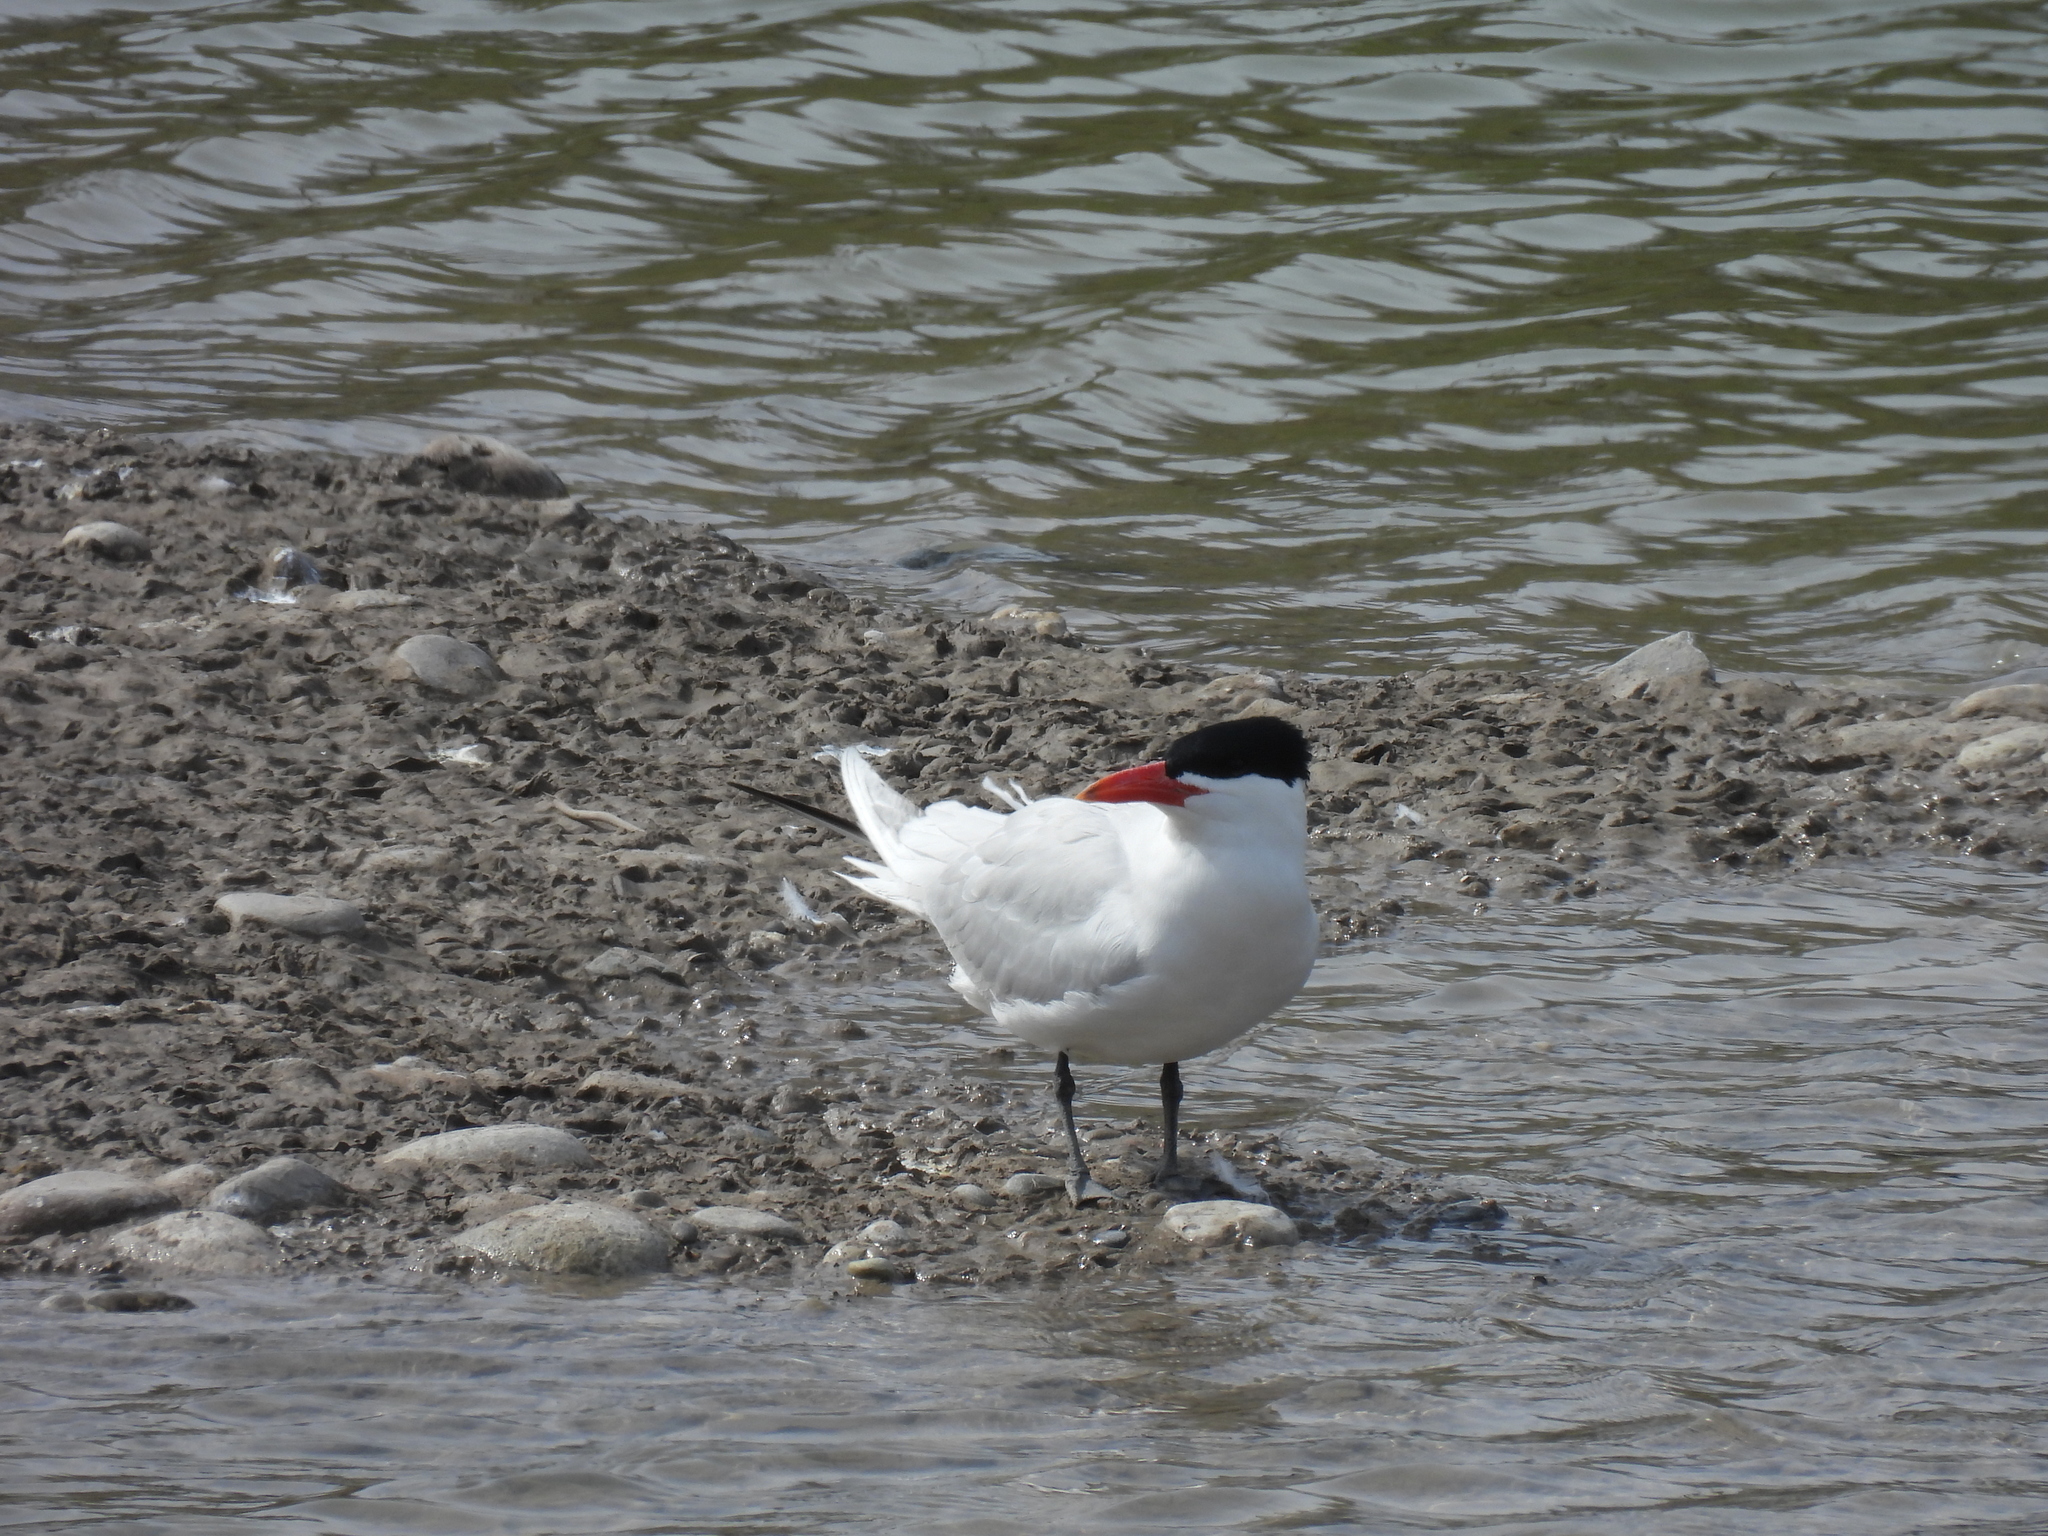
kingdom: Animalia
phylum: Chordata
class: Aves
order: Charadriiformes
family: Laridae
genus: Hydroprogne
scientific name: Hydroprogne caspia
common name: Caspian tern
